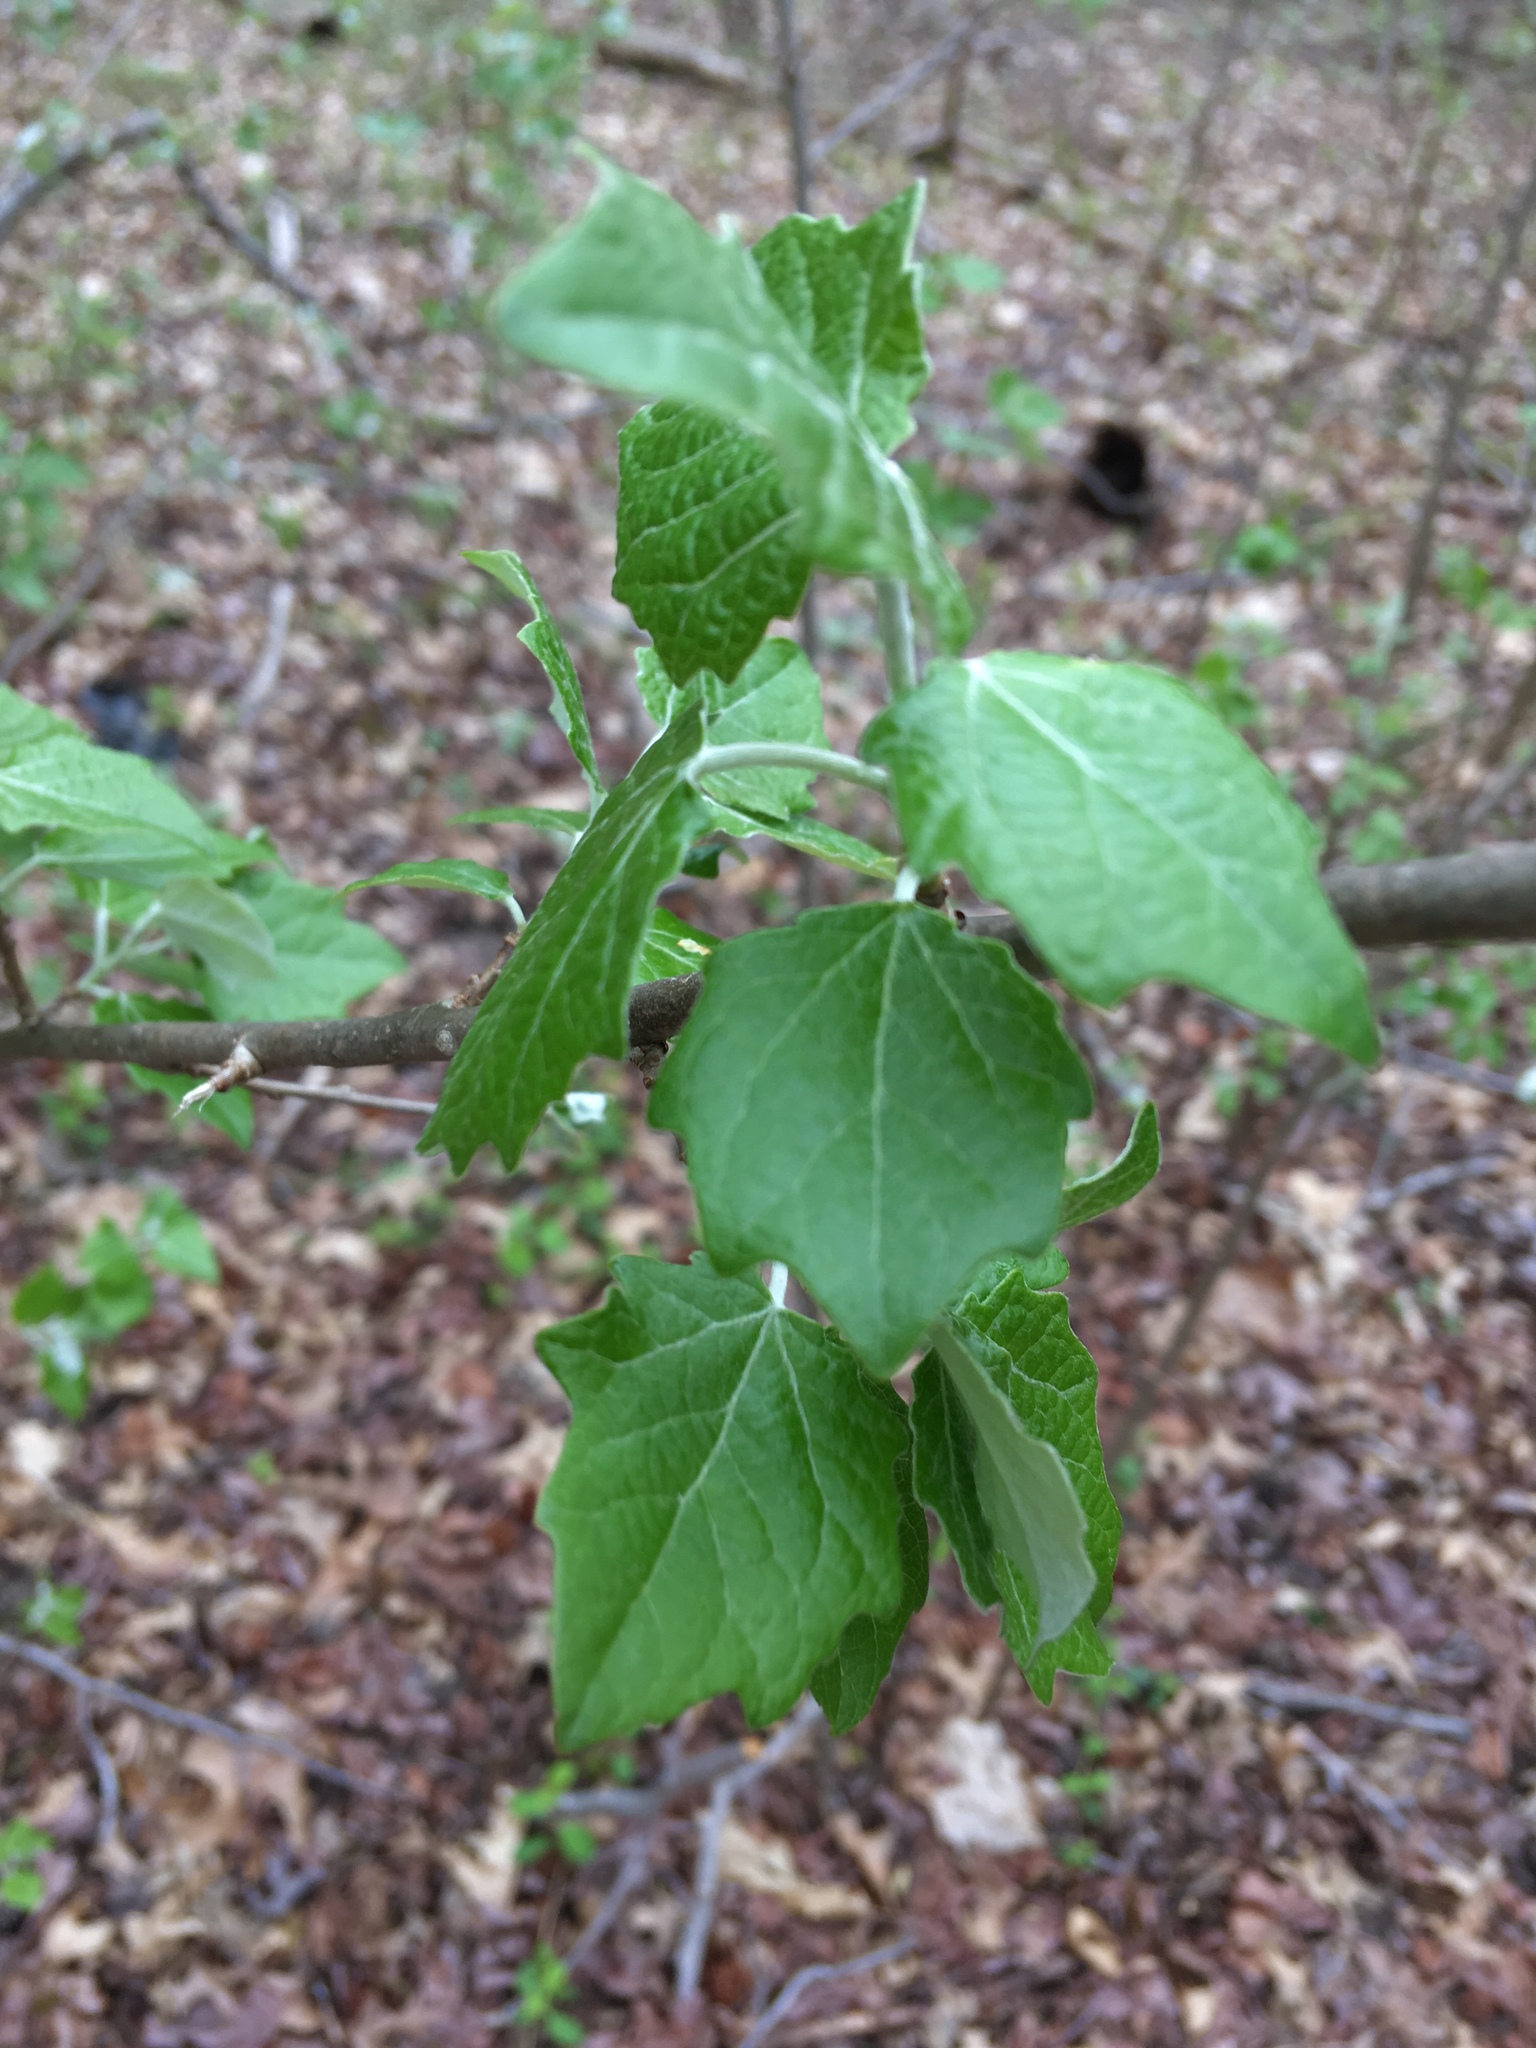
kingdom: Plantae
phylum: Tracheophyta
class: Magnoliopsida
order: Malpighiales
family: Salicaceae
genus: Populus
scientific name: Populus grandidentata
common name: Bigtooth aspen
